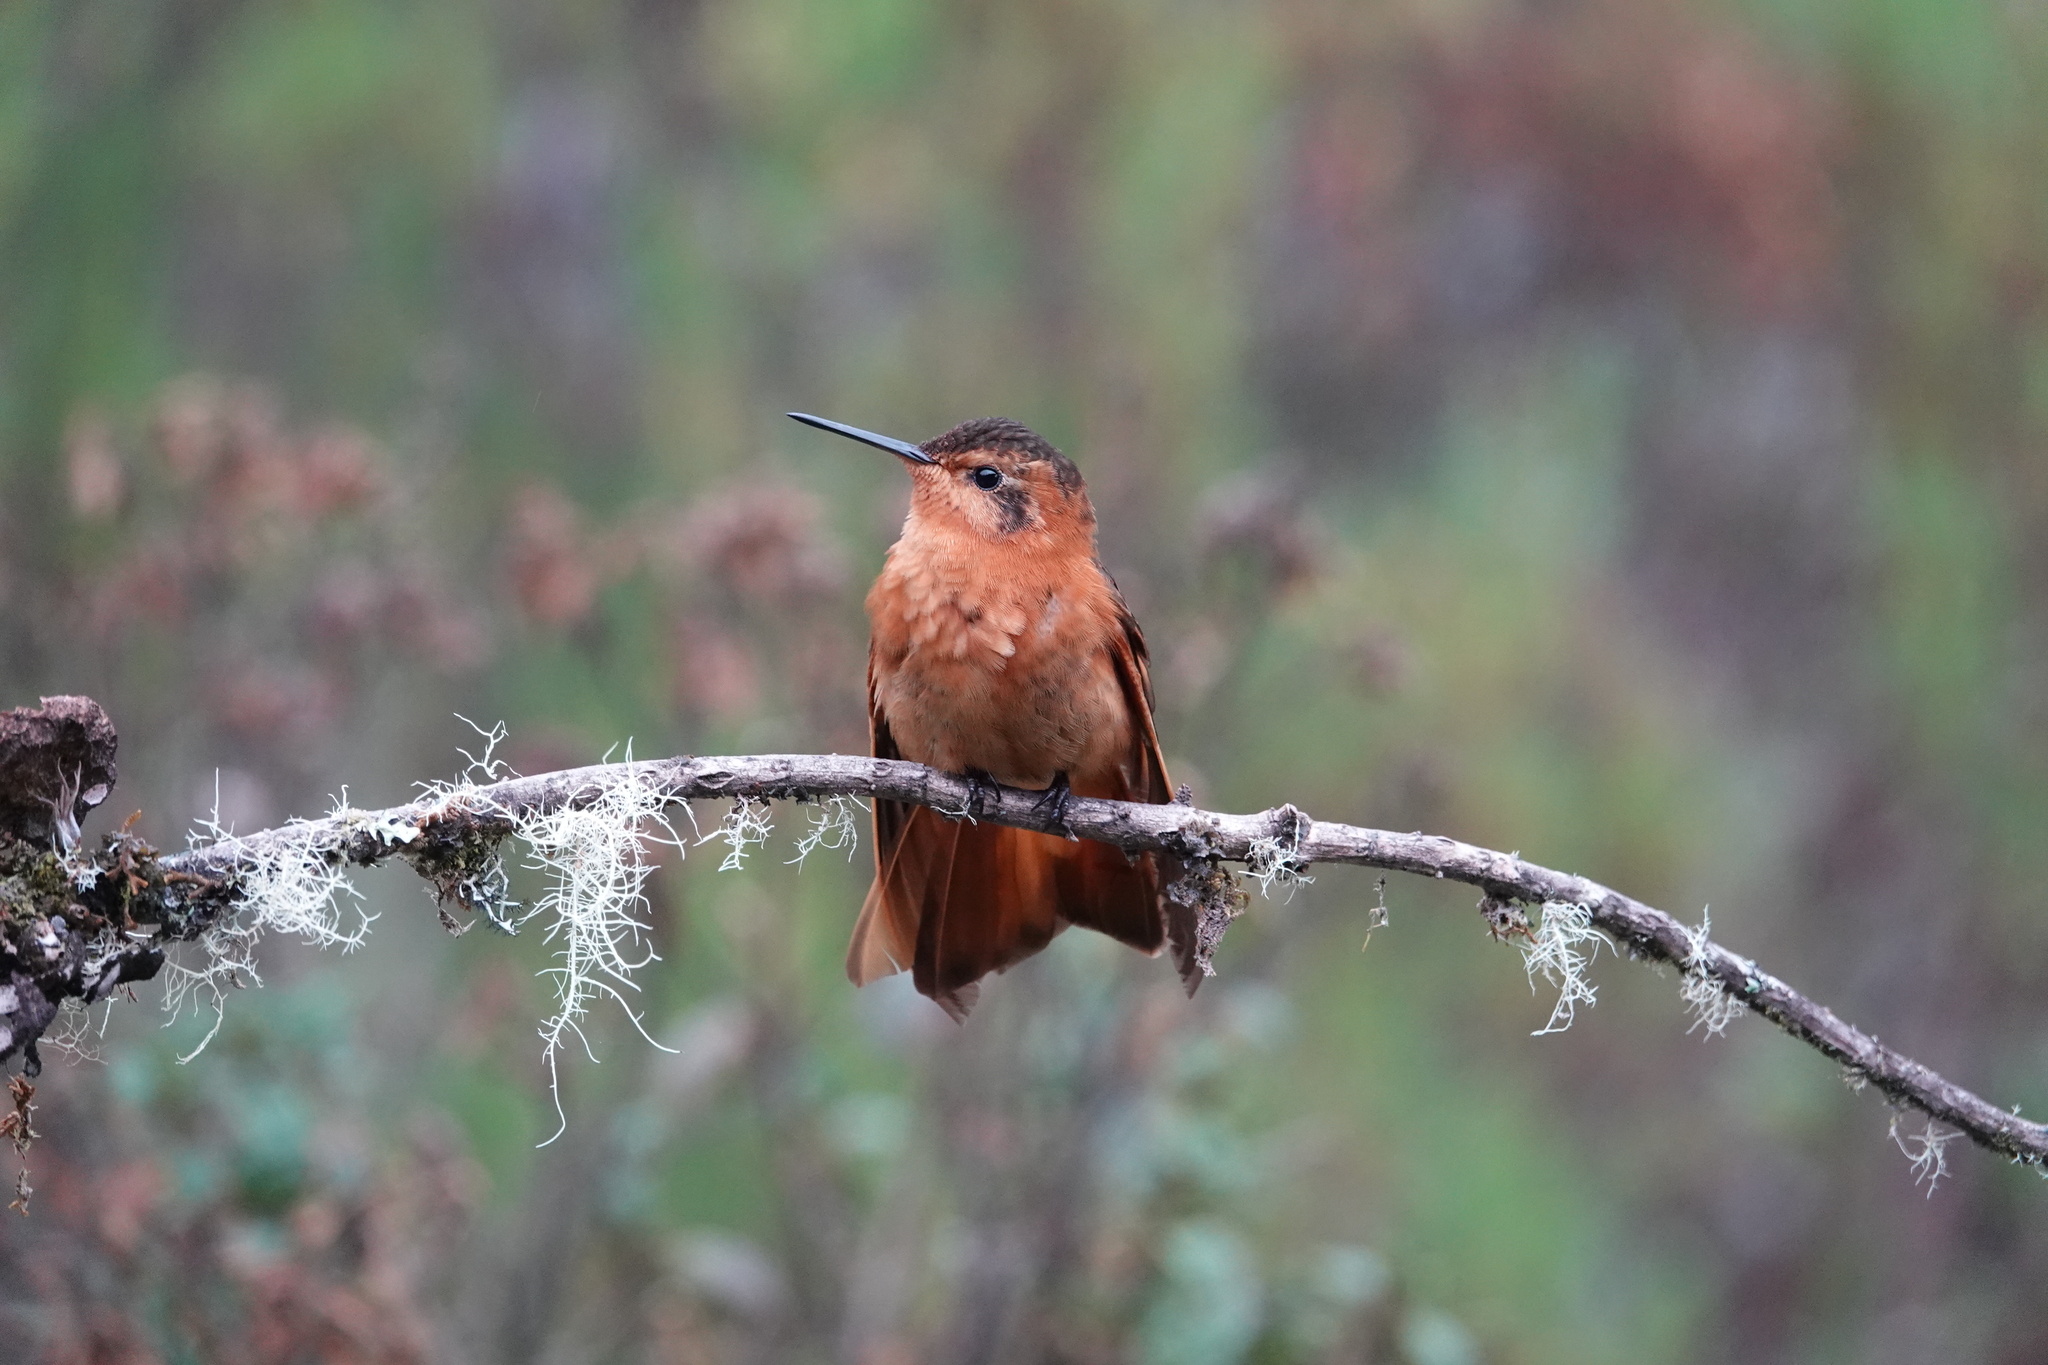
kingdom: Animalia
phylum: Chordata
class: Aves
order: Apodiformes
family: Trochilidae
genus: Aglaeactis
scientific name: Aglaeactis cupripennis
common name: Shining sunbeam
